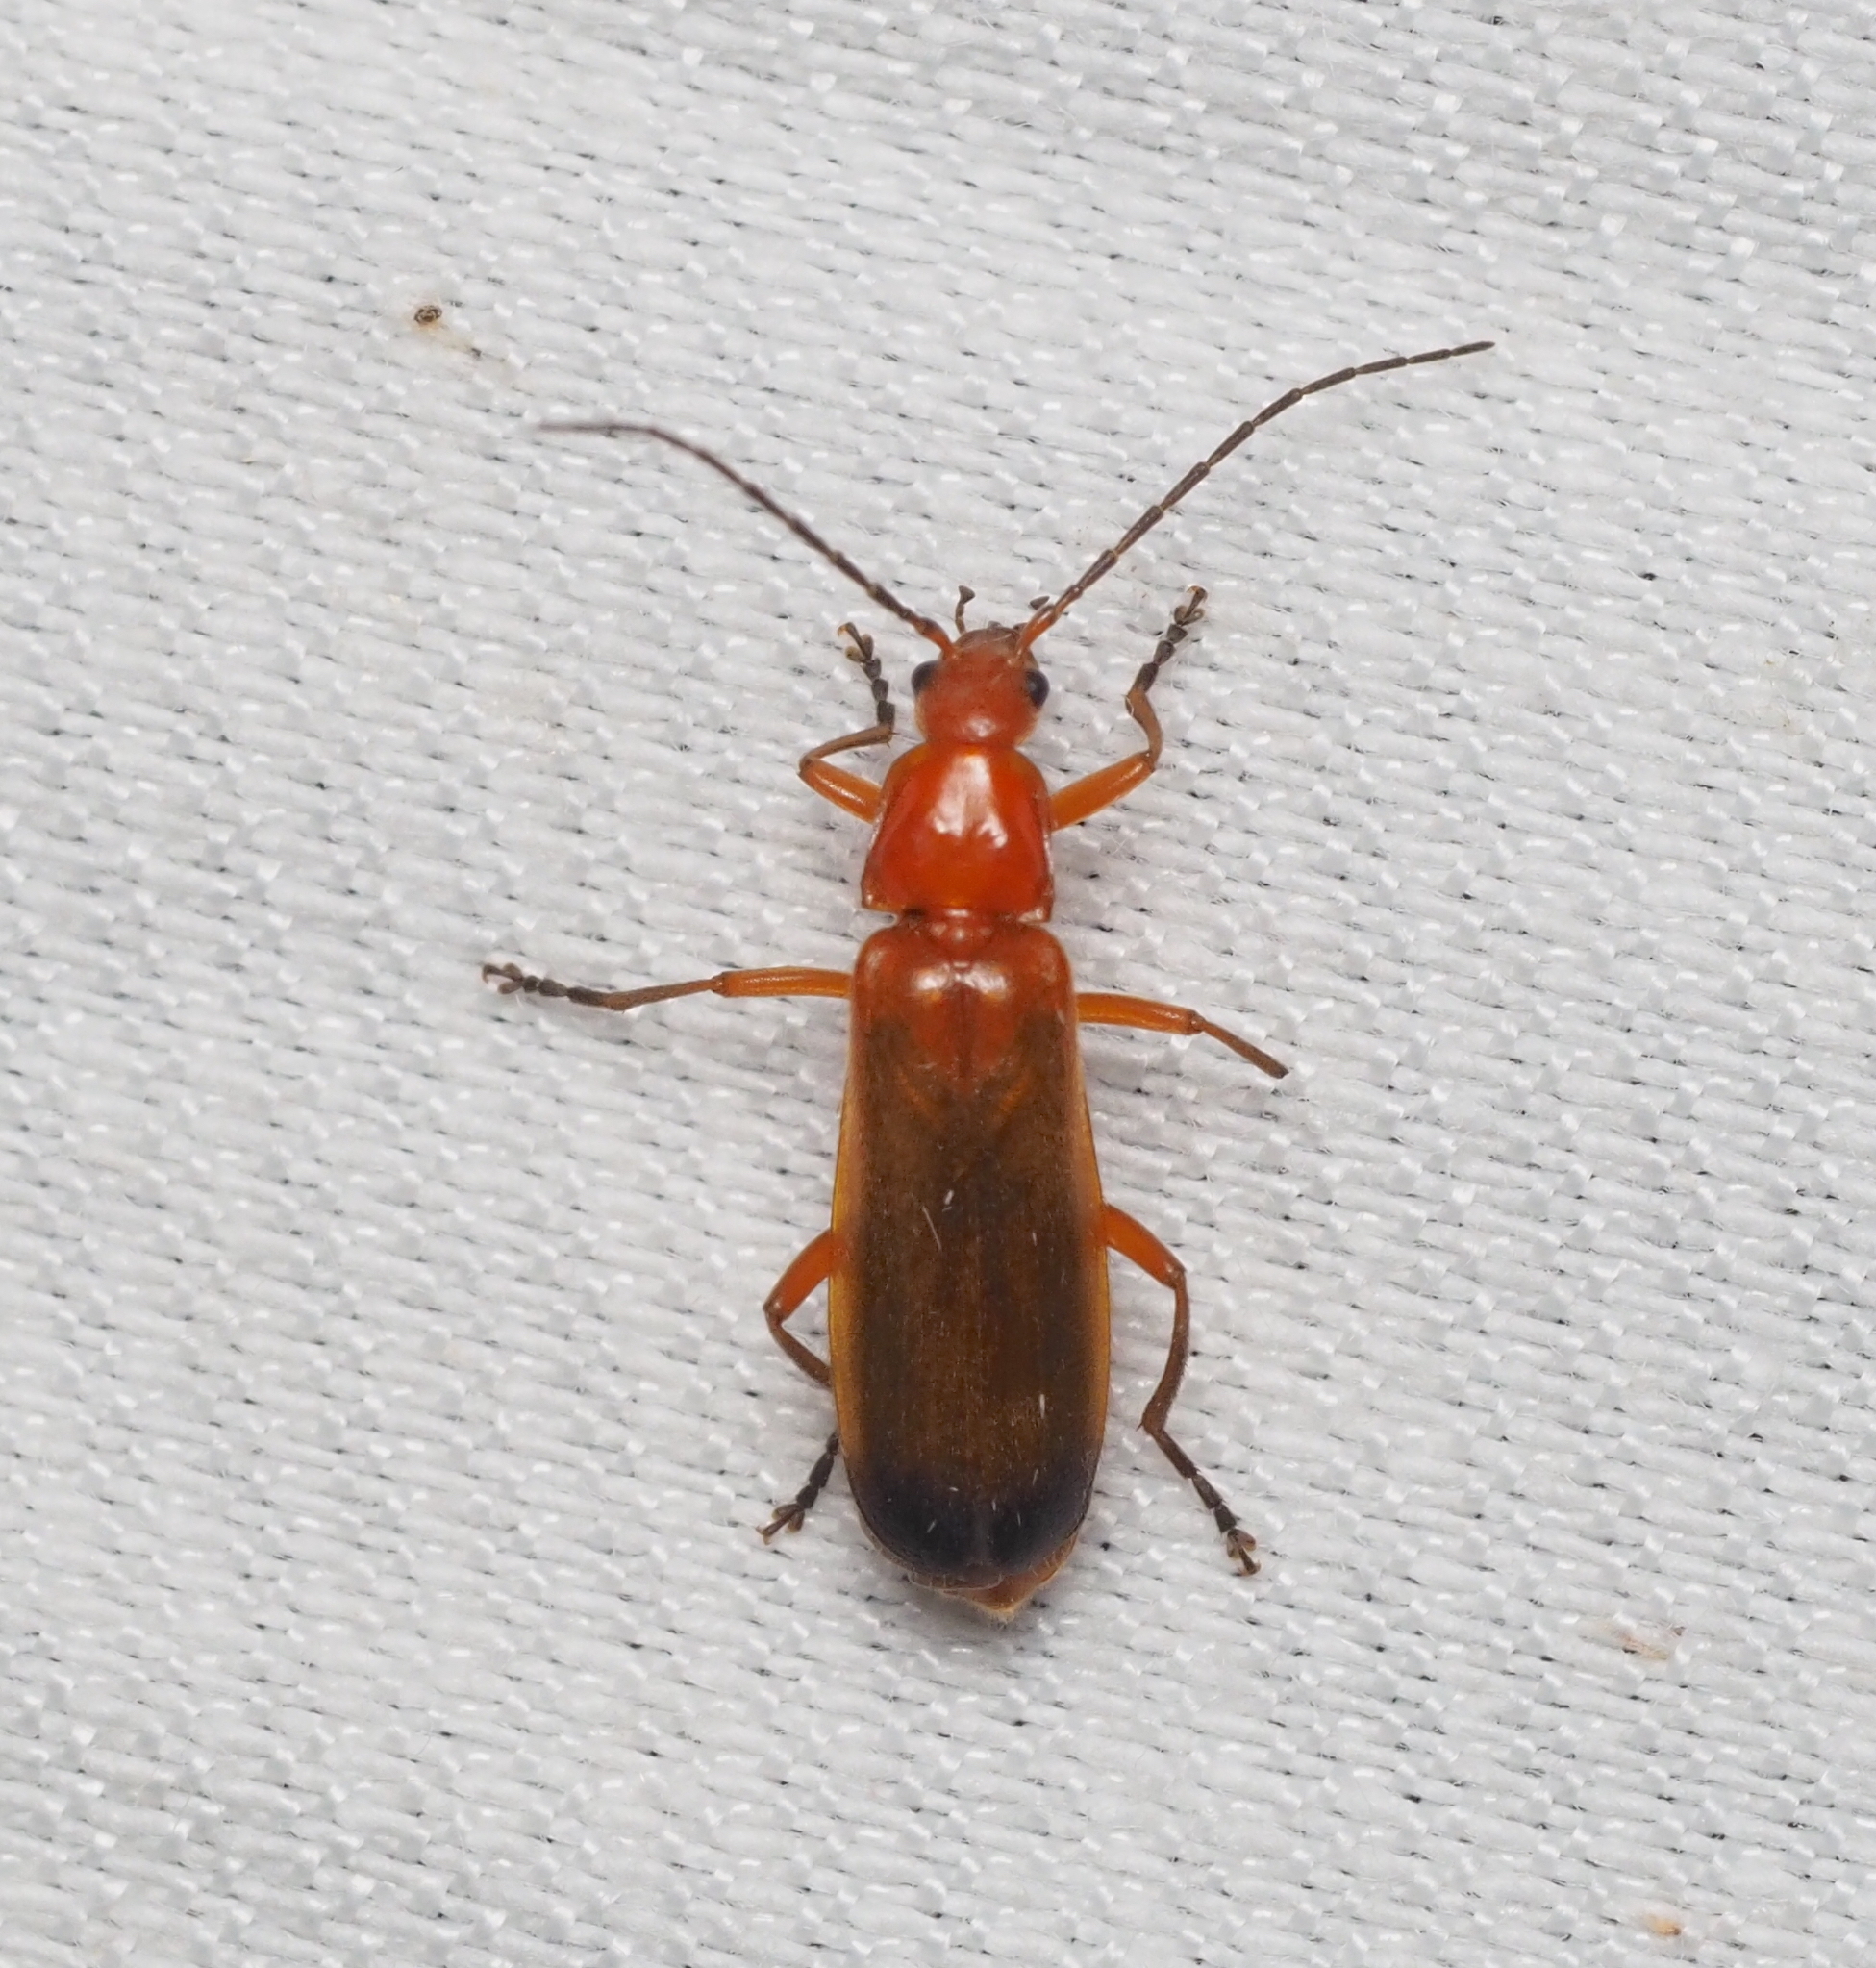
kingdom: Animalia
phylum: Arthropoda
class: Insecta
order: Coleoptera
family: Cantharidae
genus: Rhagonycha
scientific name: Rhagonycha fulva
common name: Common red soldier beetle
